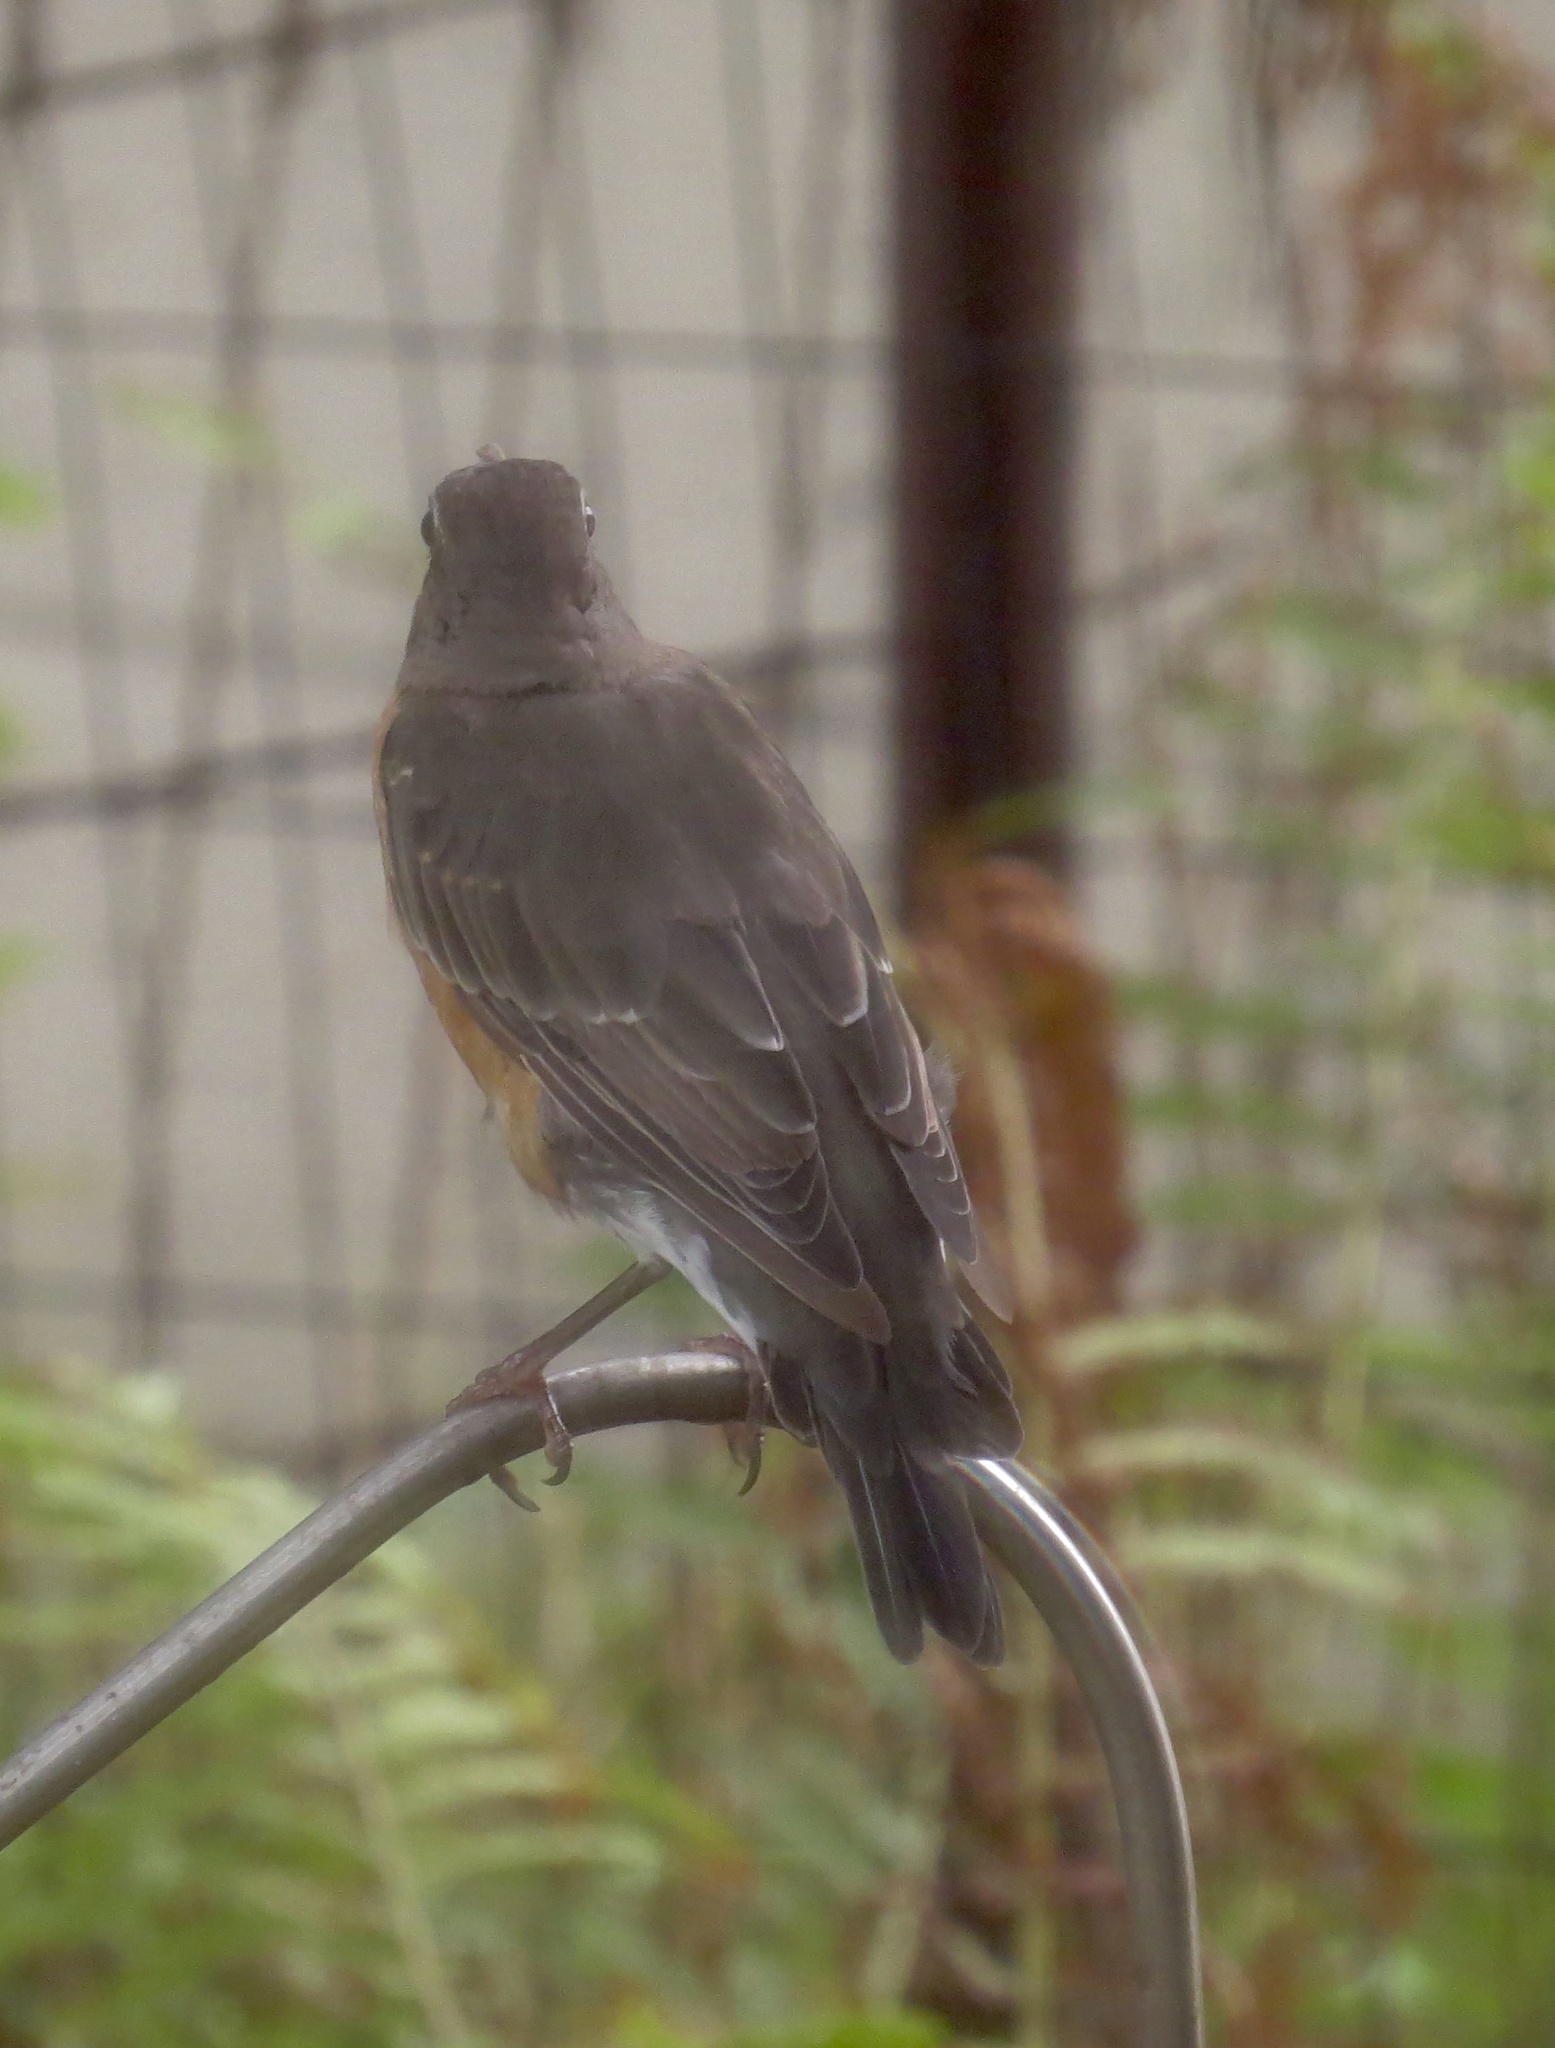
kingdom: Animalia
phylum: Chordata
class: Aves
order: Passeriformes
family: Turdidae
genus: Turdus
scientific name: Turdus migratorius
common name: American robin
